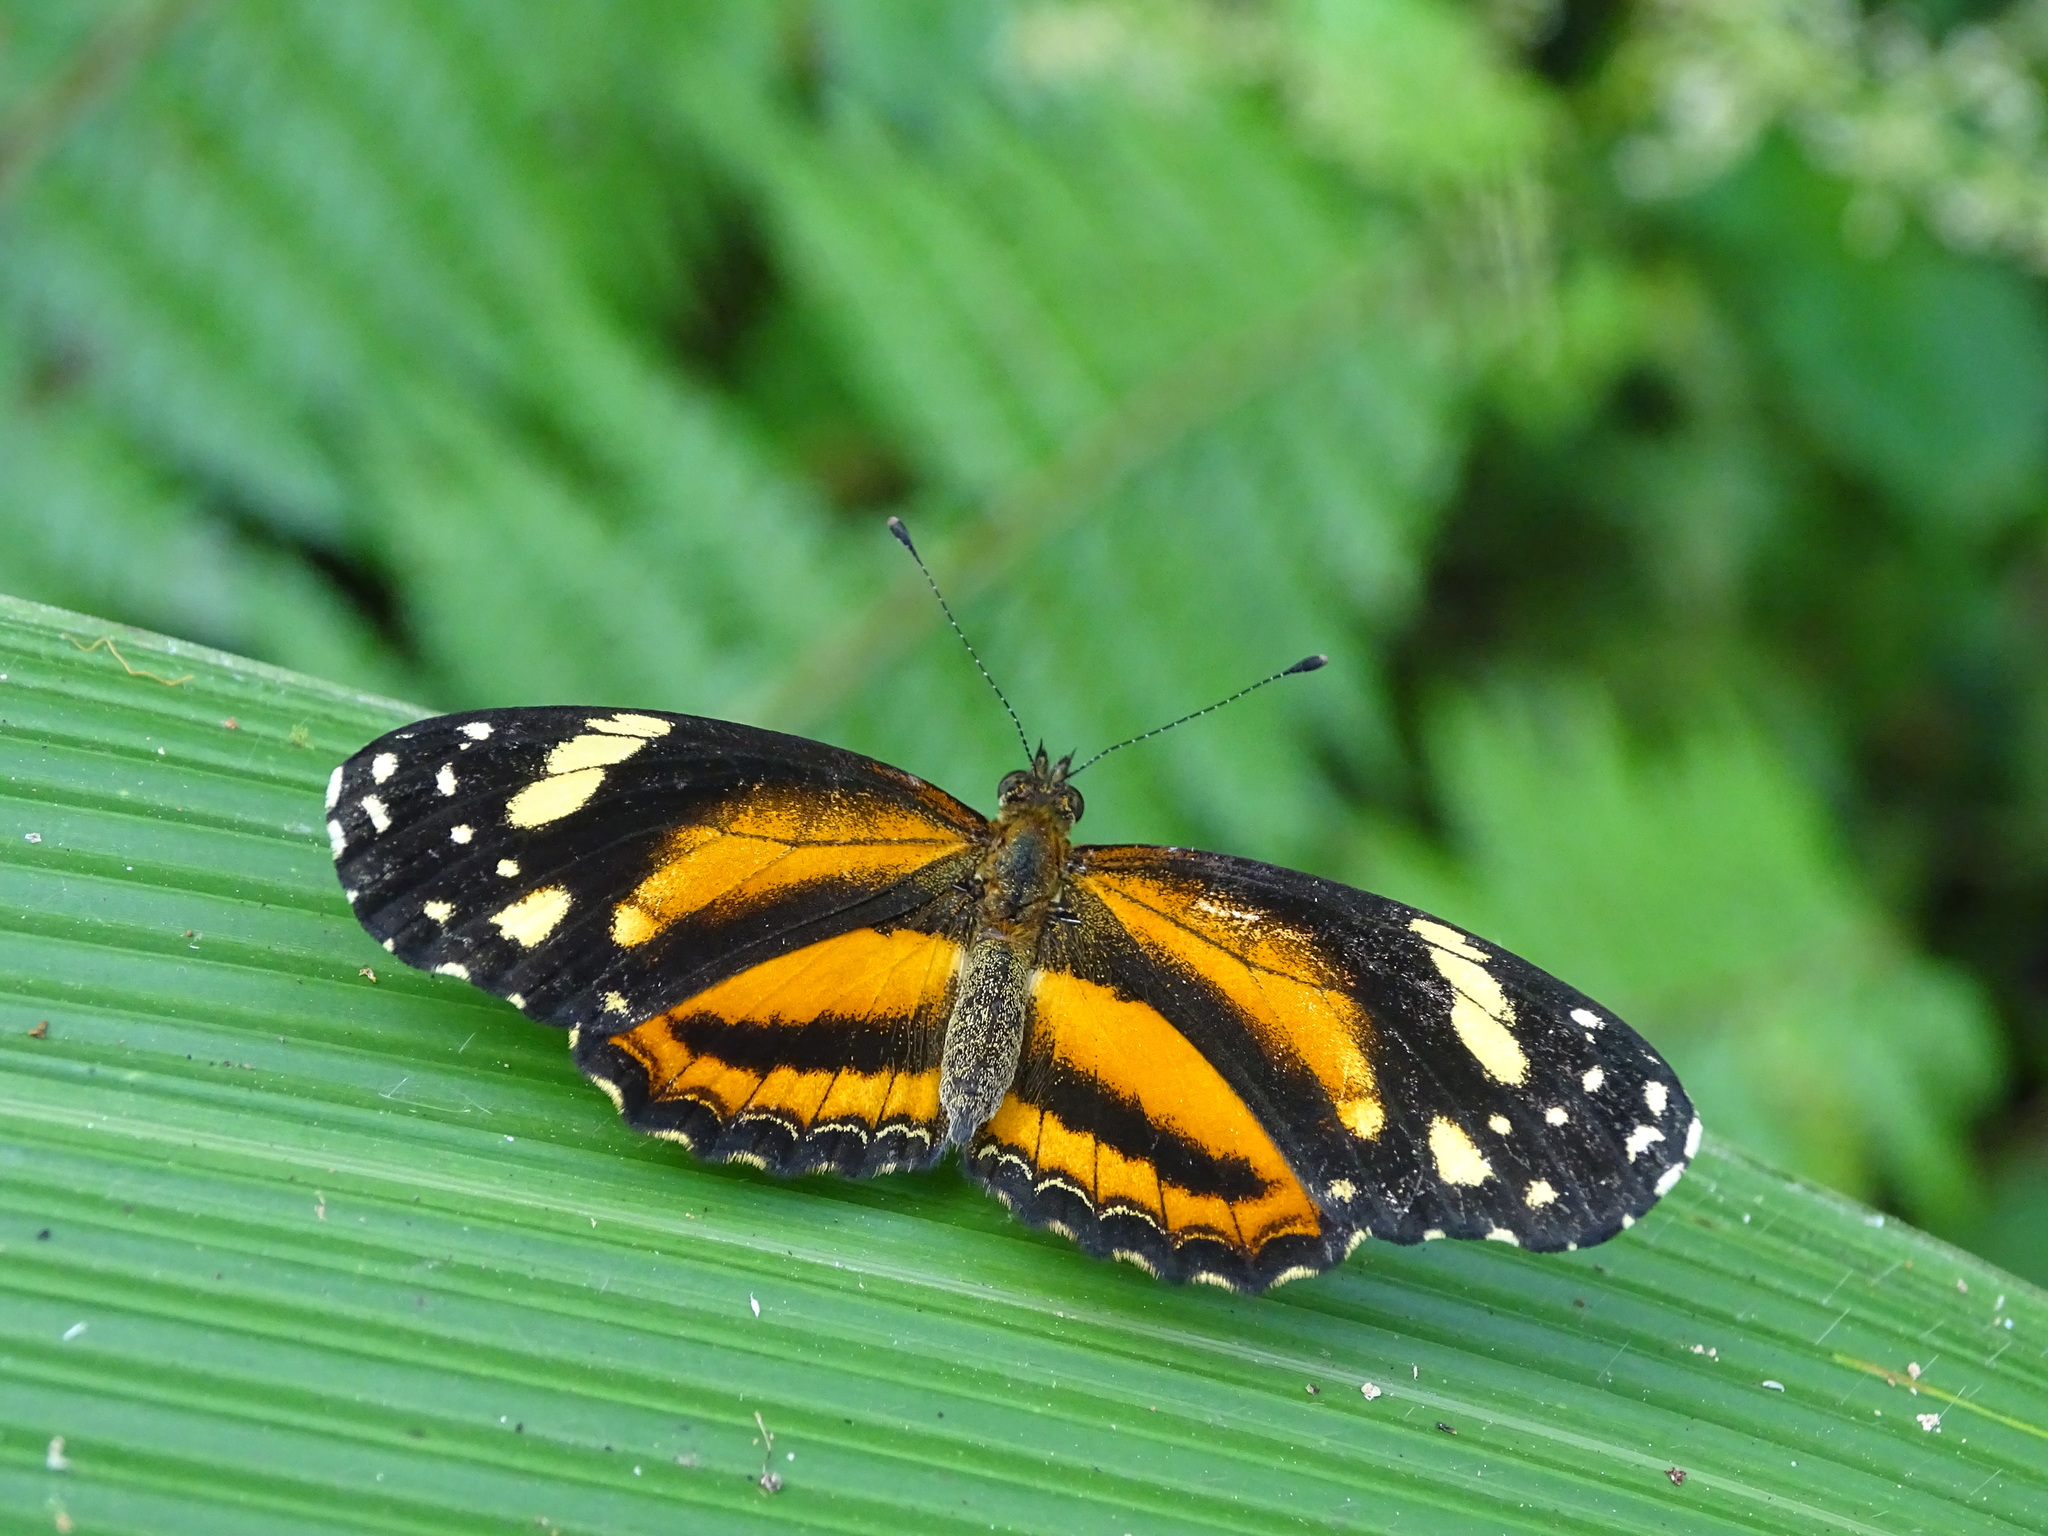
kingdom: Animalia
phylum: Arthropoda
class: Insecta
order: Lepidoptera
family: Nymphalidae
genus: Castilia
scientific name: Castilia eranites
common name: Smudged crescent
